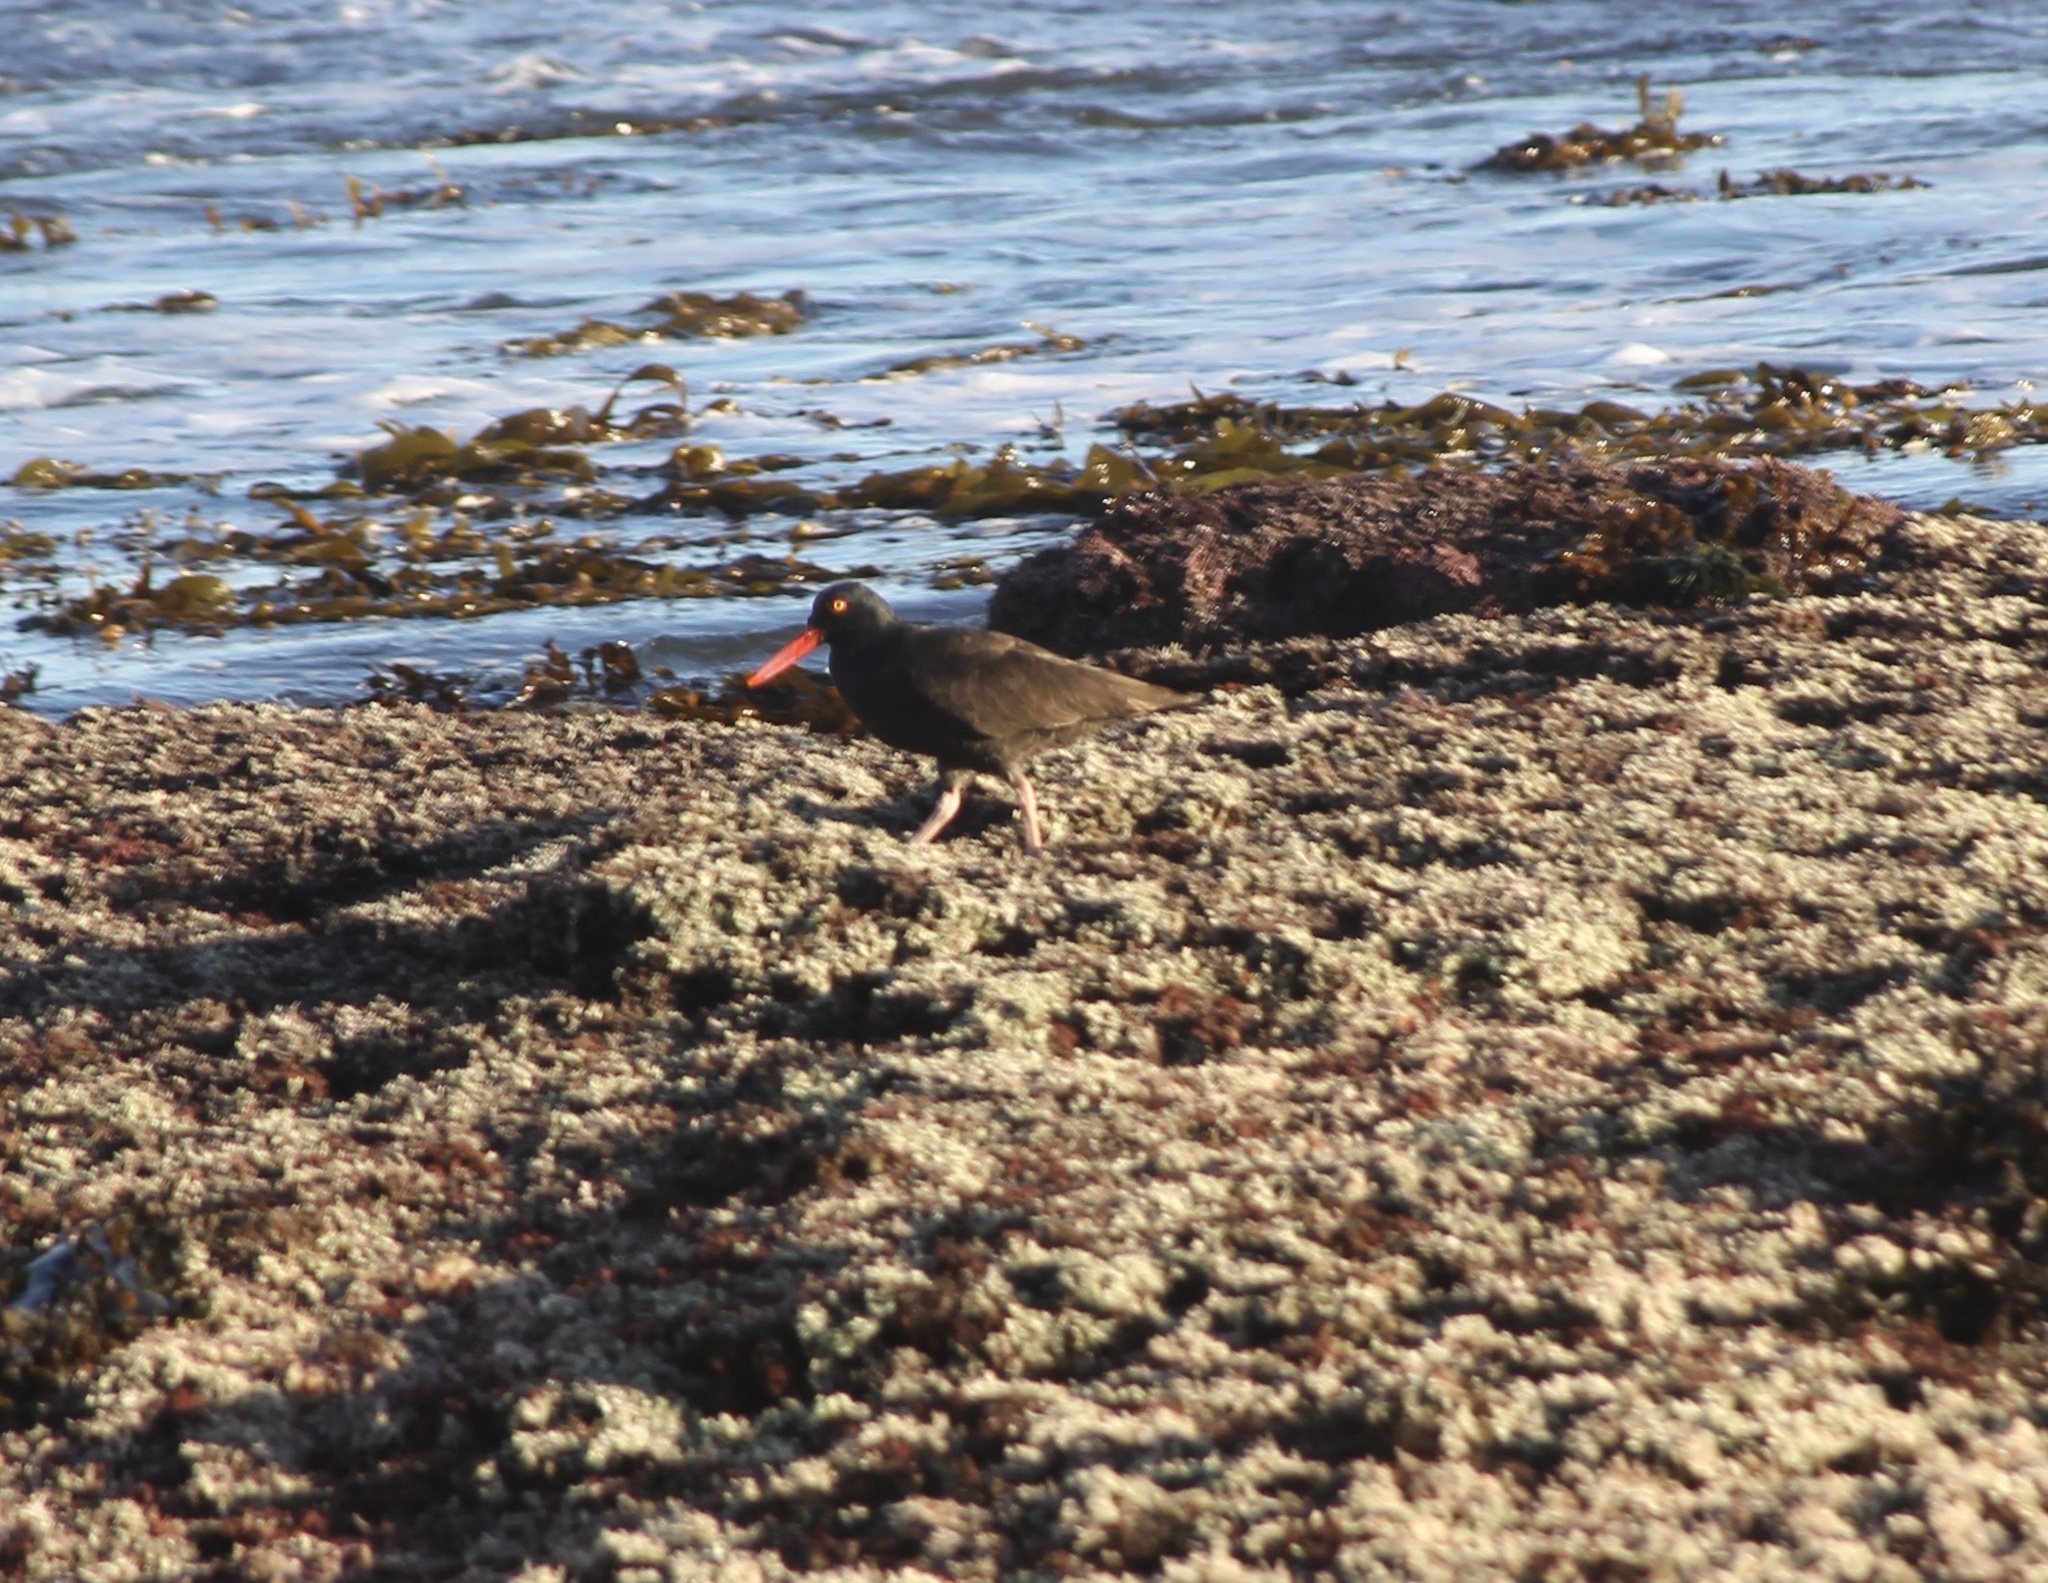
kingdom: Animalia
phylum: Chordata
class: Aves
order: Charadriiformes
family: Haematopodidae
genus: Haematopus
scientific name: Haematopus bachmani
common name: Black oystercatcher
